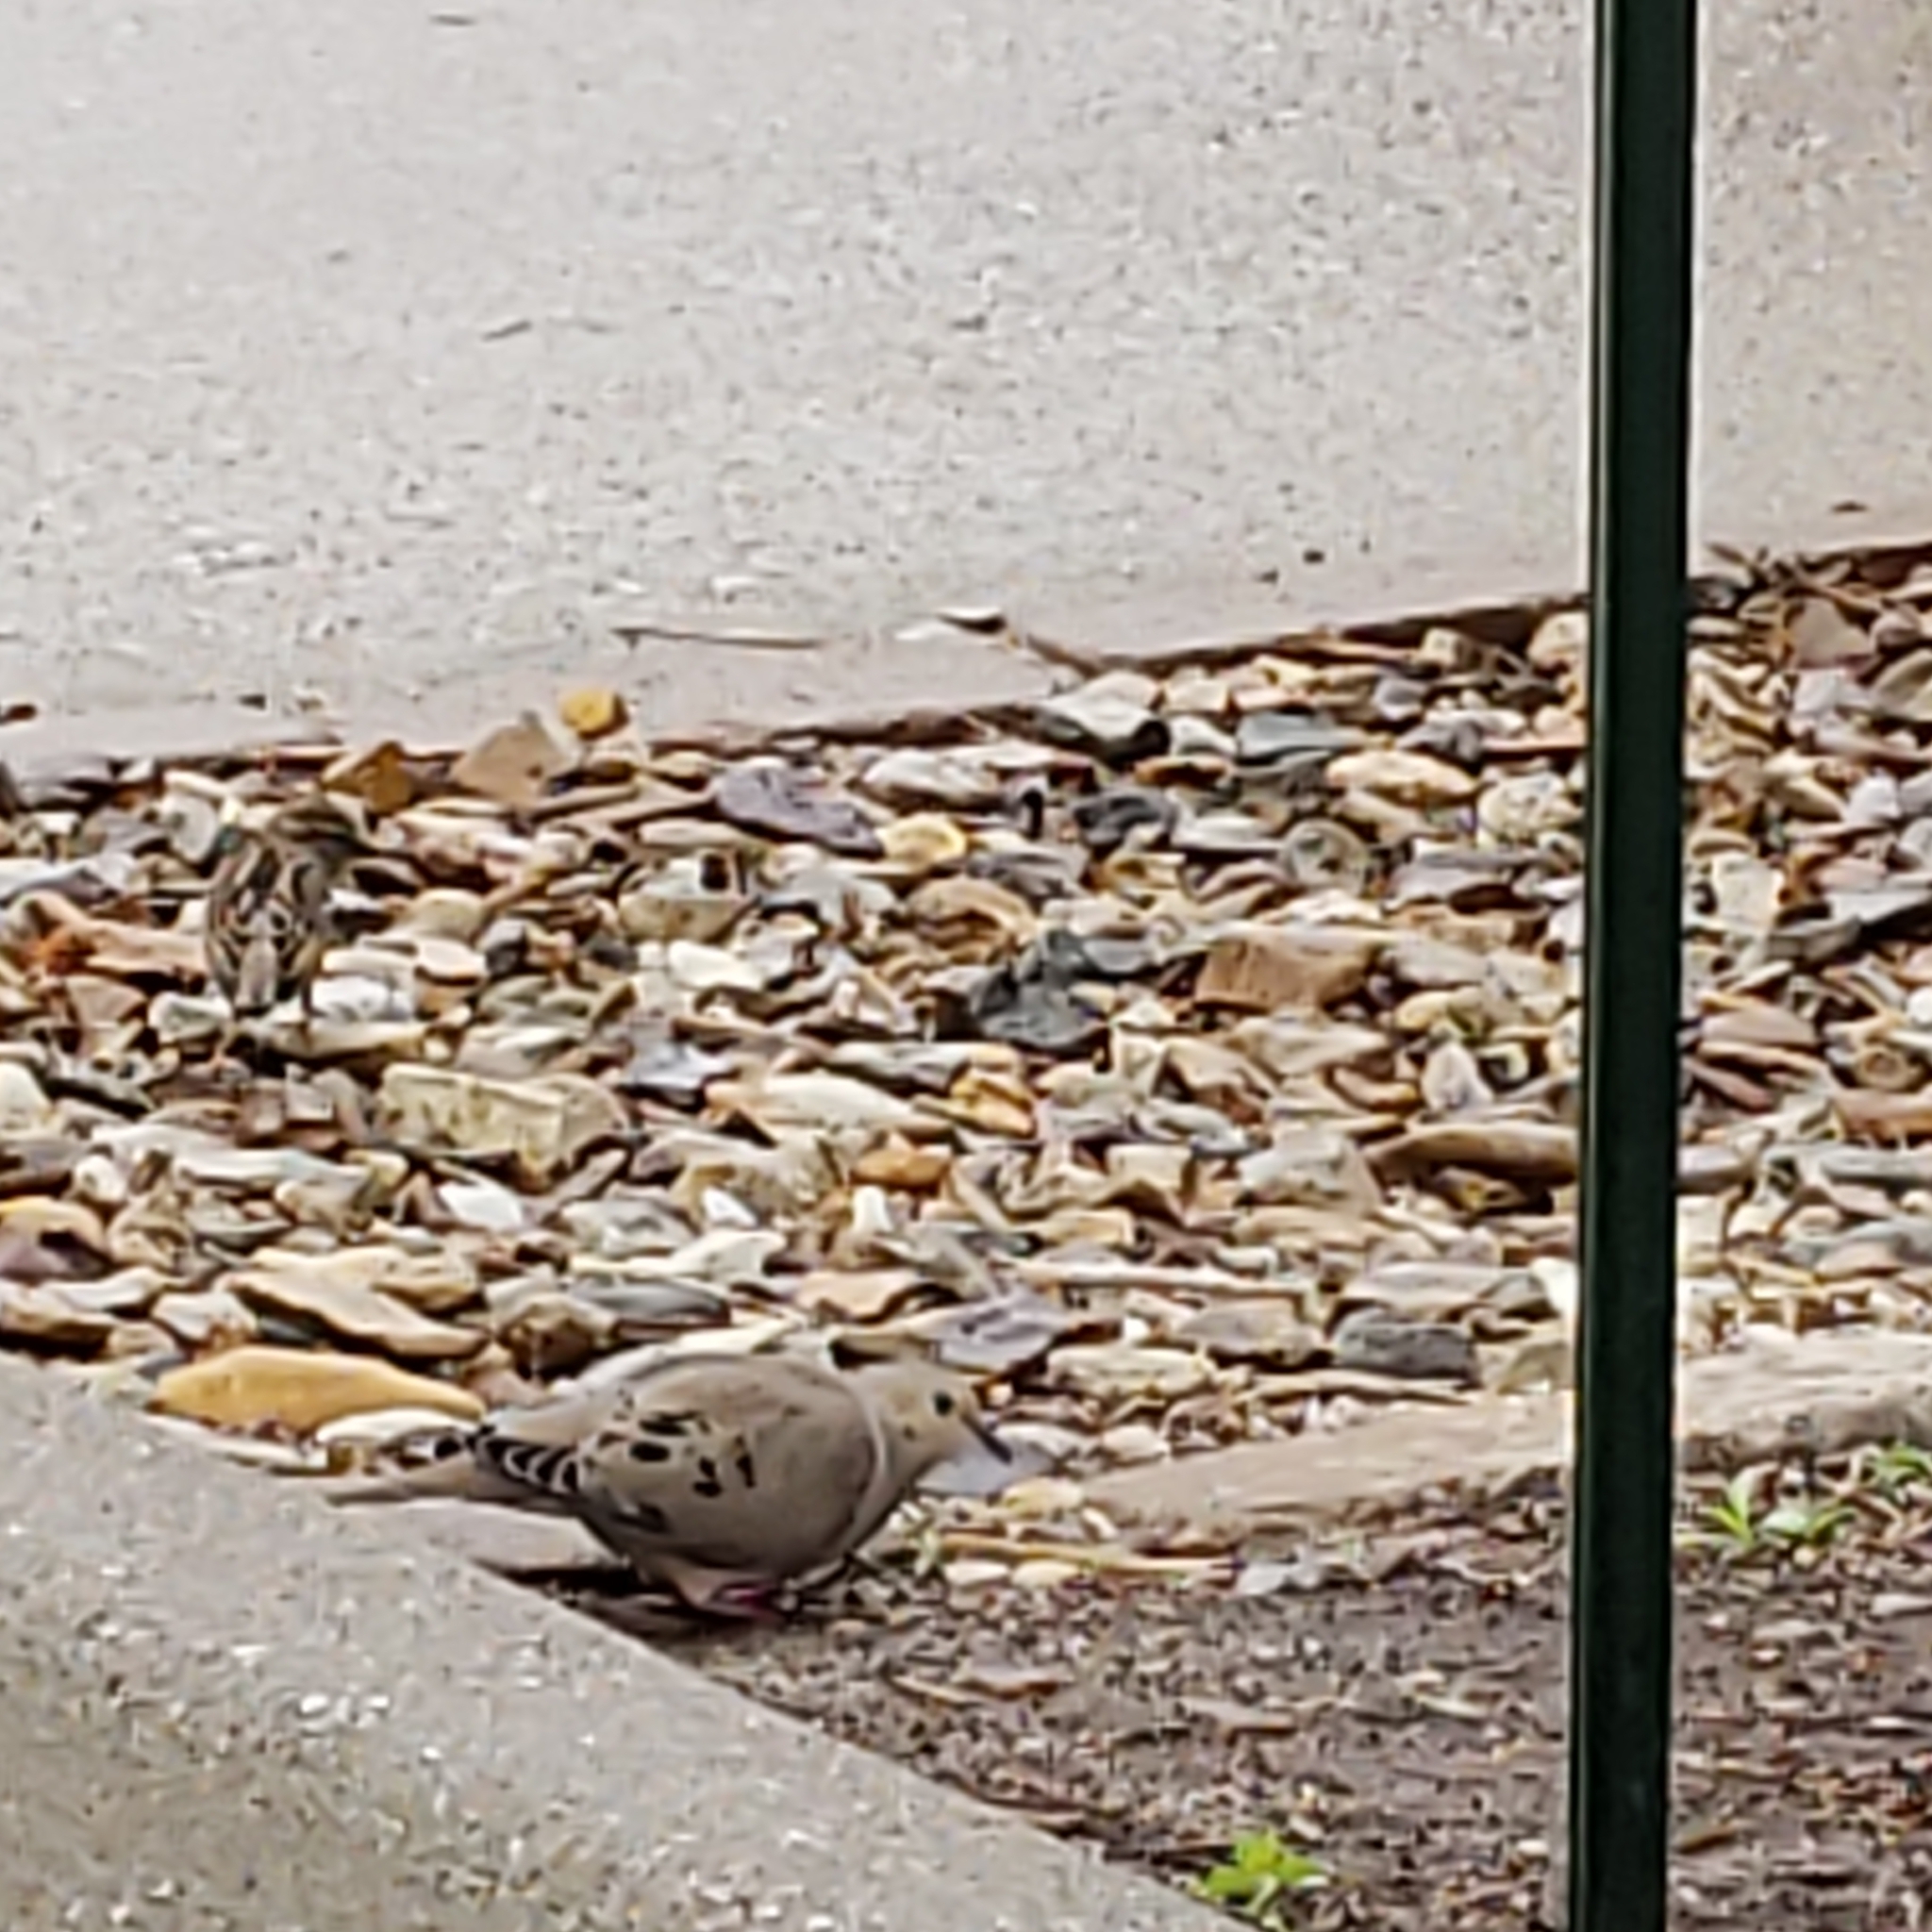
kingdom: Animalia
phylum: Chordata
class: Aves
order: Columbiformes
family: Columbidae
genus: Zenaida
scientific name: Zenaida macroura
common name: Mourning dove
